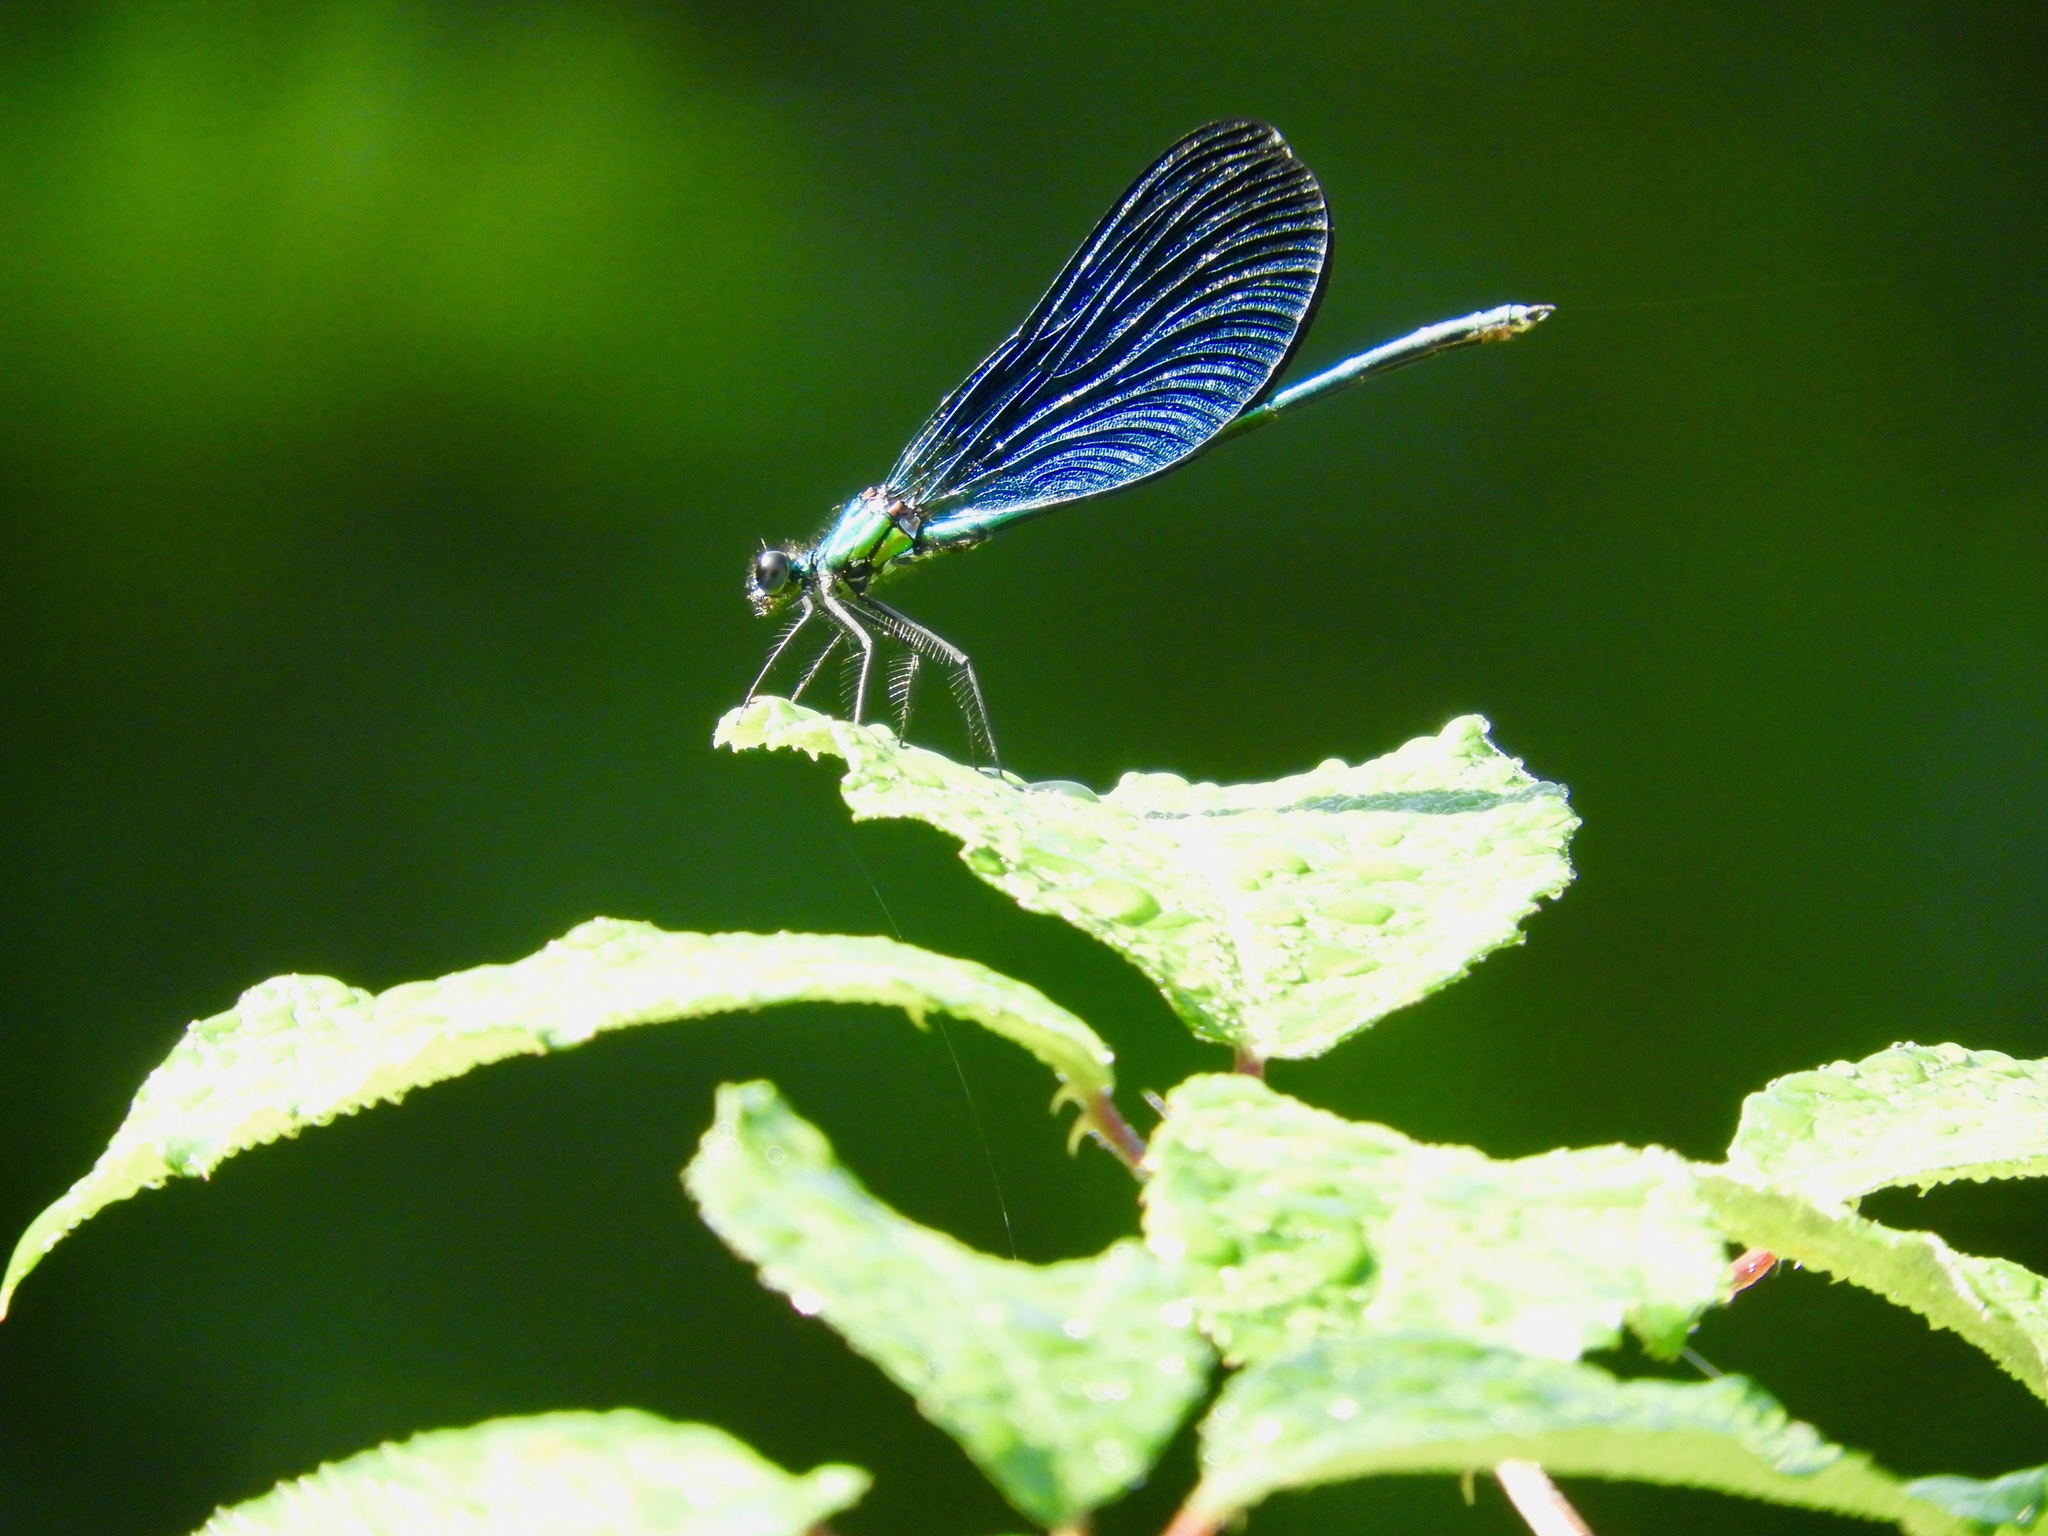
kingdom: Animalia
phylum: Arthropoda
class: Insecta
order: Odonata
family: Calopterygidae
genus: Calopteryx
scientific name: Calopteryx virgo
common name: Beautiful demoiselle
